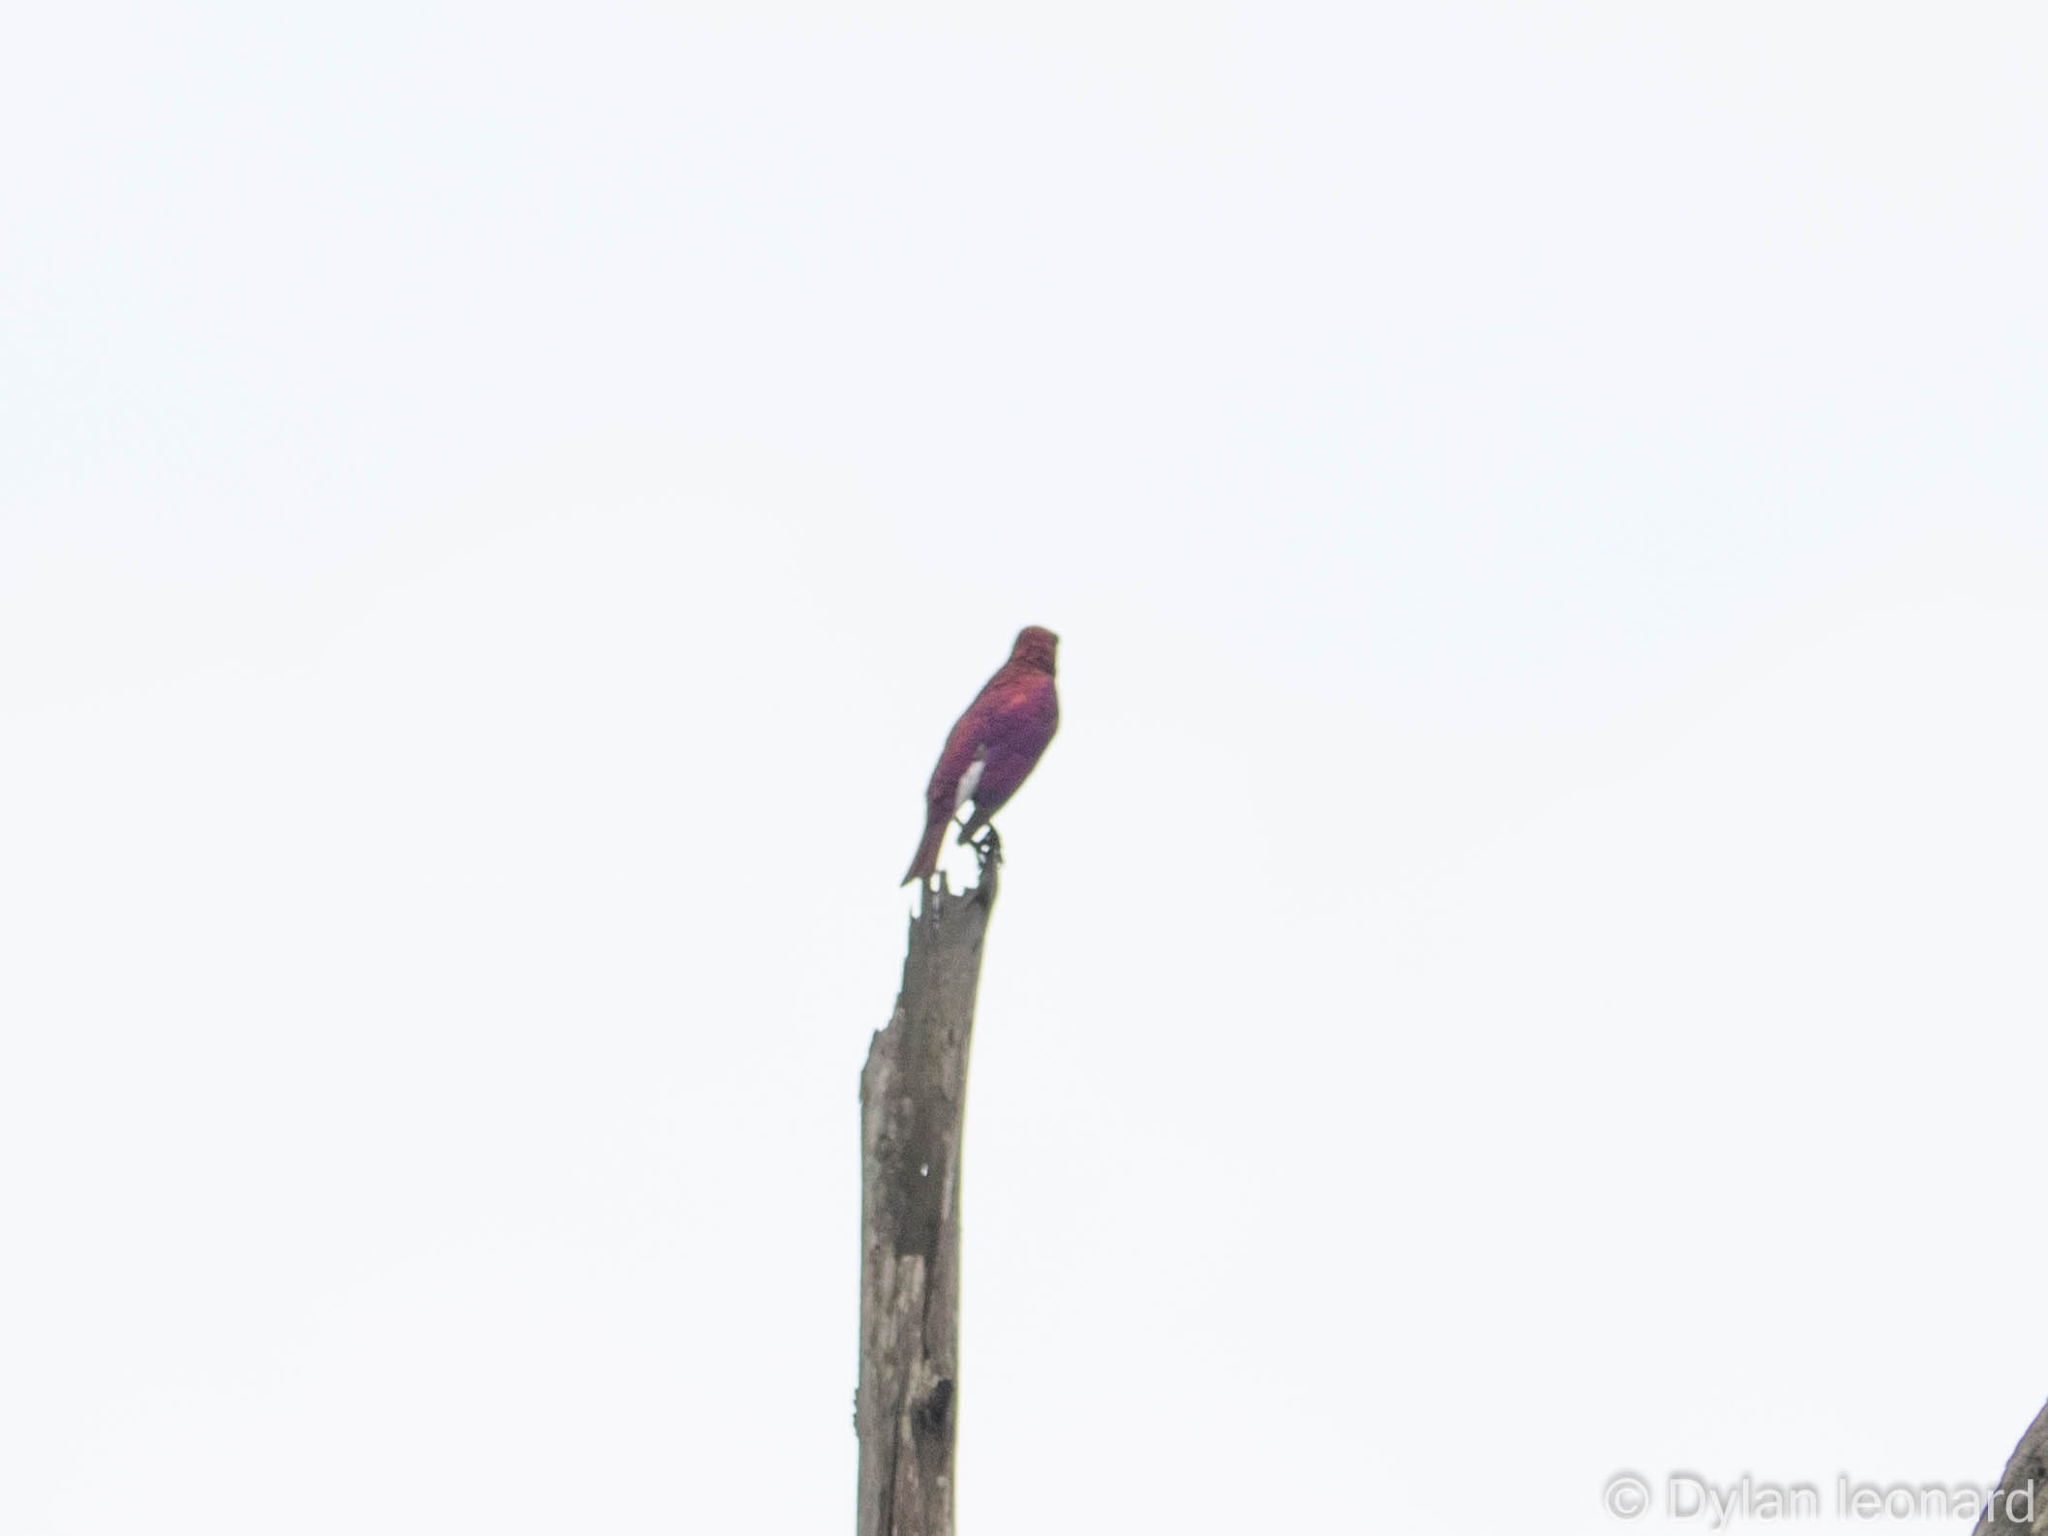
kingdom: Animalia
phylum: Chordata
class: Aves
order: Passeriformes
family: Sturnidae
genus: Cinnyricinclus
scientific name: Cinnyricinclus leucogaster
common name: Violet-backed starling
